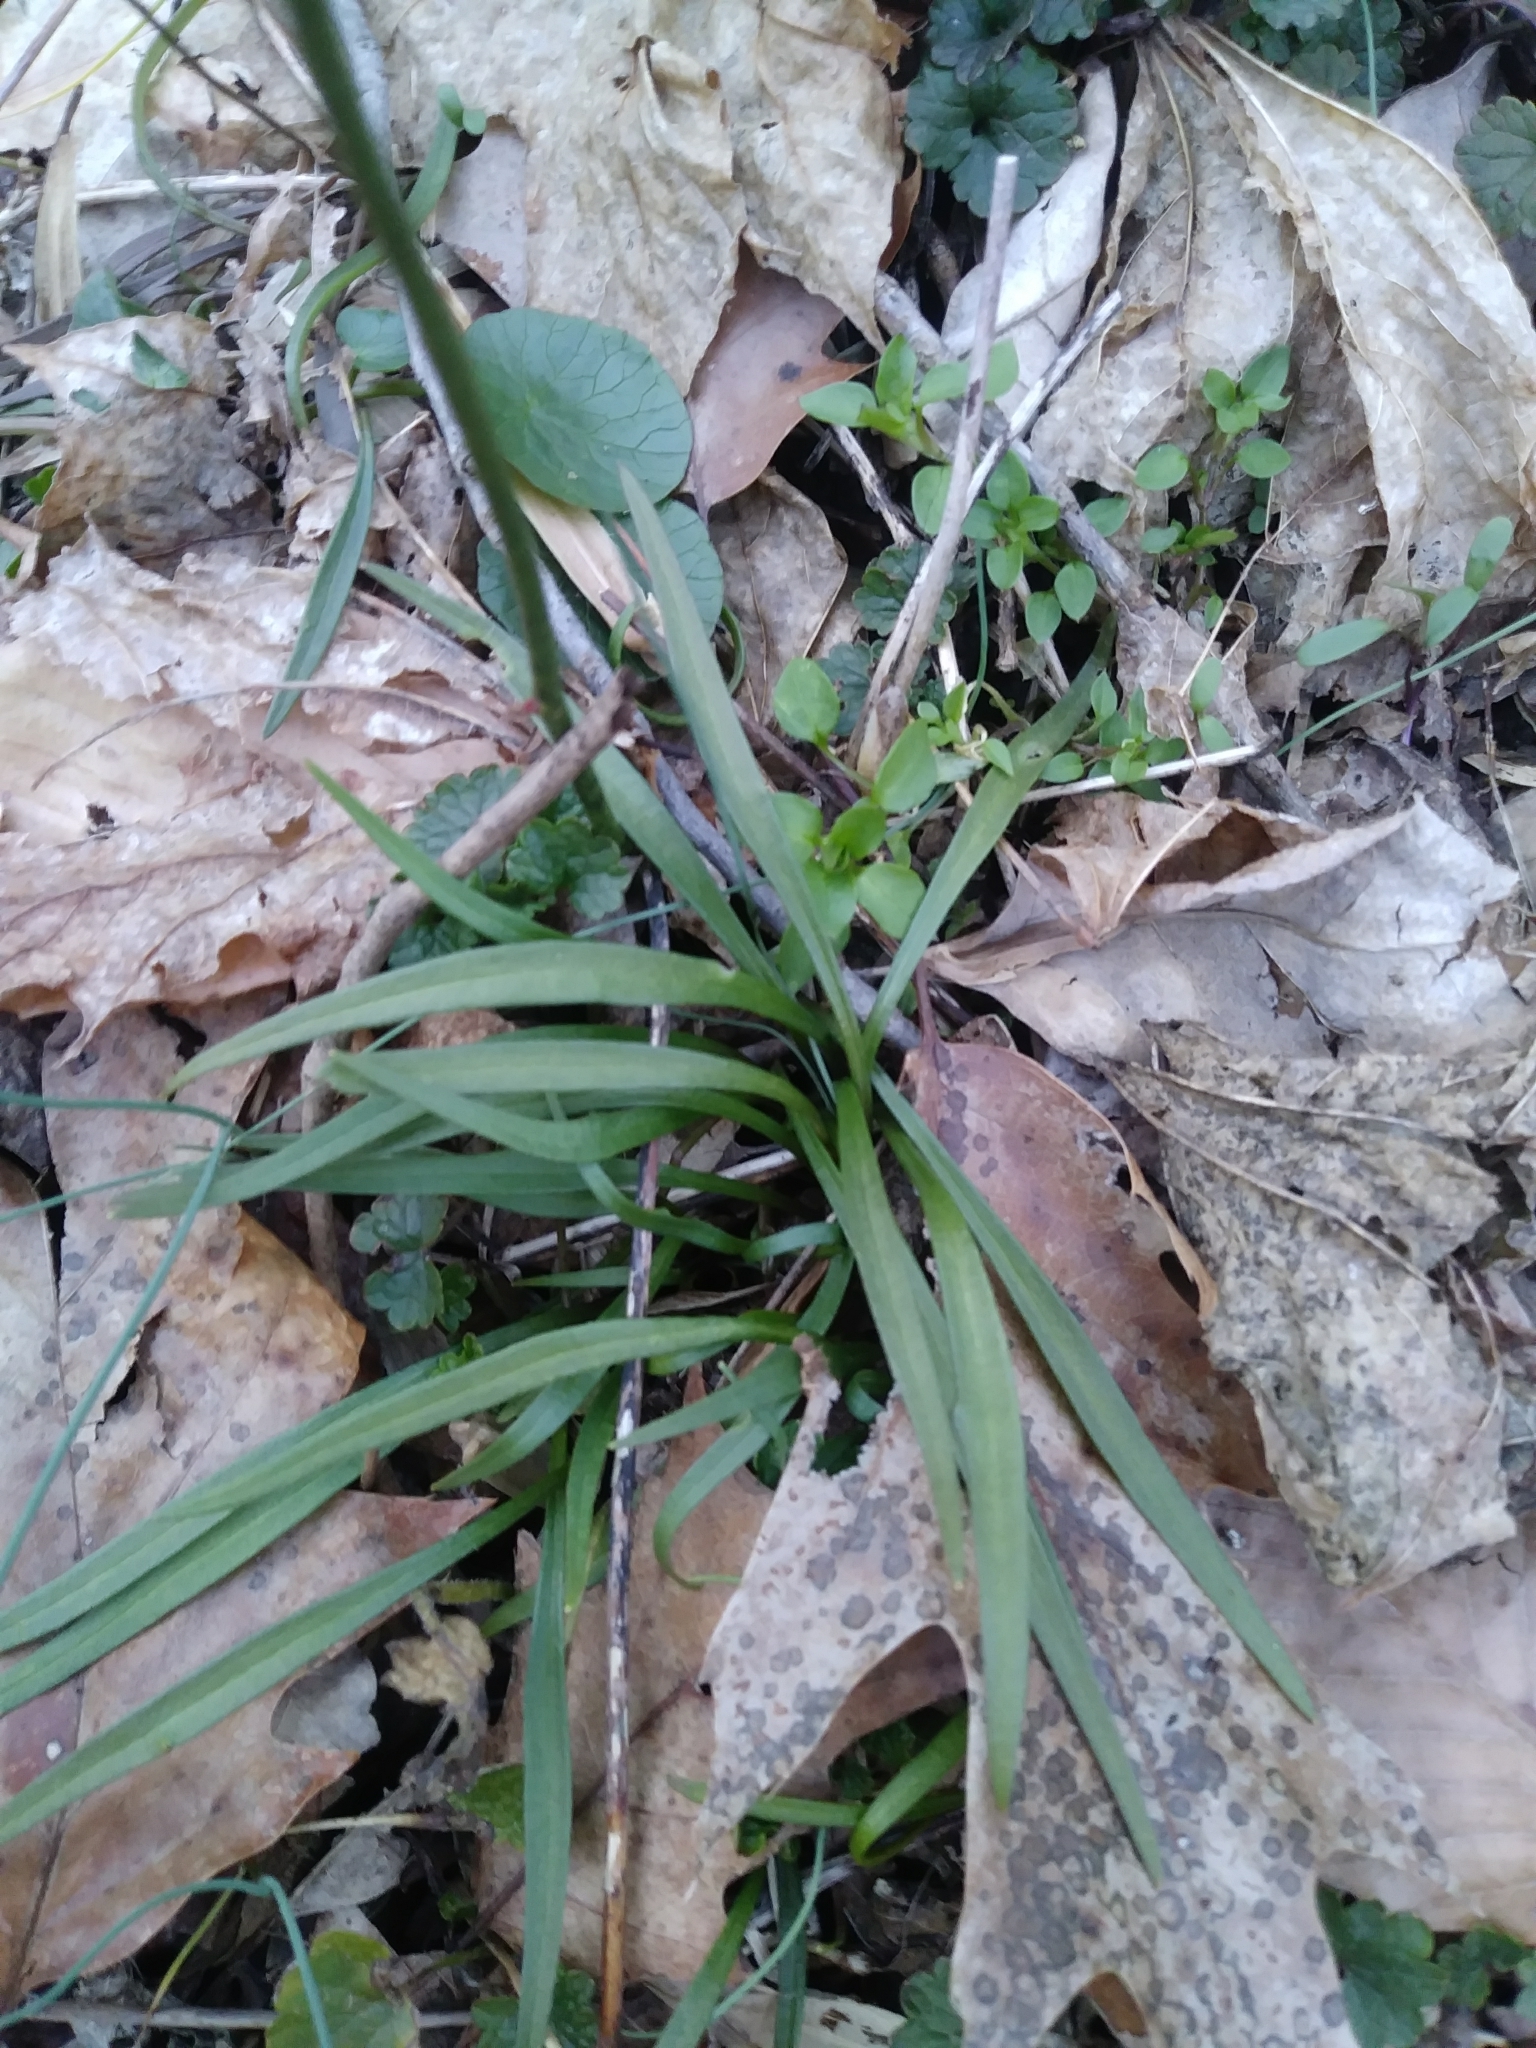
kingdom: Plantae
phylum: Tracheophyta
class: Magnoliopsida
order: Caryophyllales
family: Montiaceae
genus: Claytonia
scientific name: Claytonia virginica
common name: Virginia springbeauty
